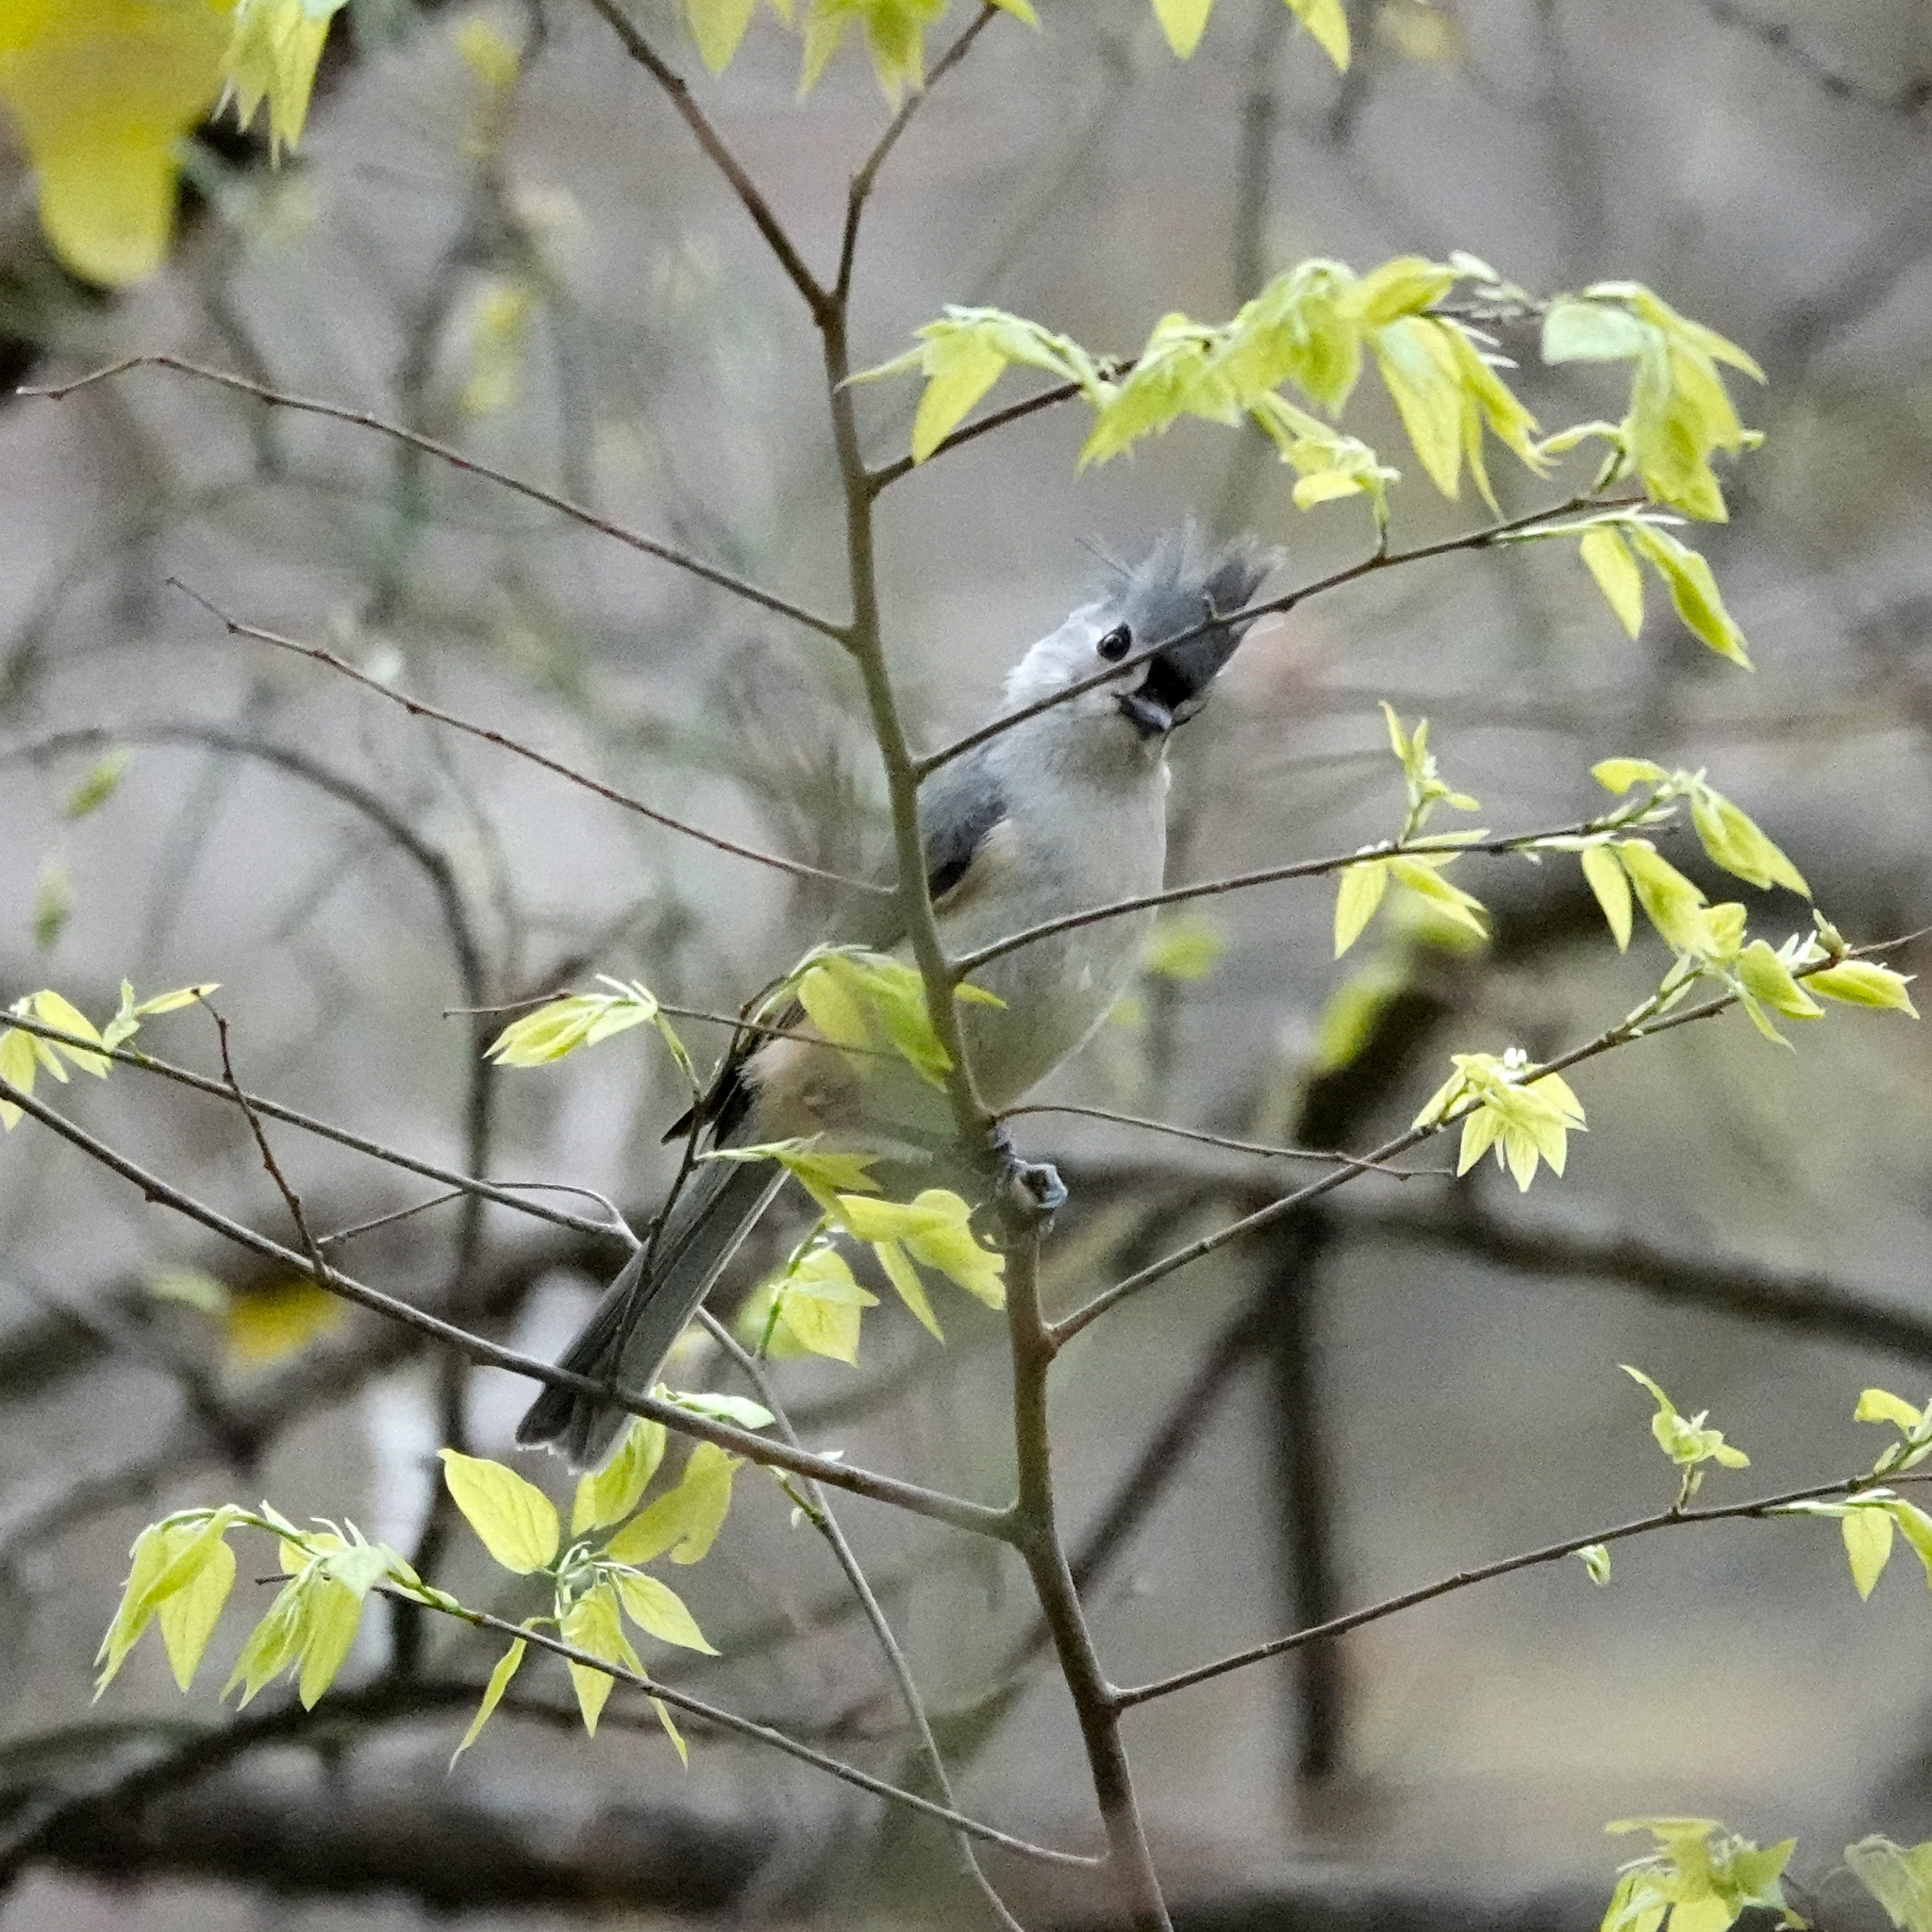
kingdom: Animalia
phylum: Chordata
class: Aves
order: Passeriformes
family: Paridae
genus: Baeolophus
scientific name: Baeolophus bicolor
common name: Tufted titmouse
